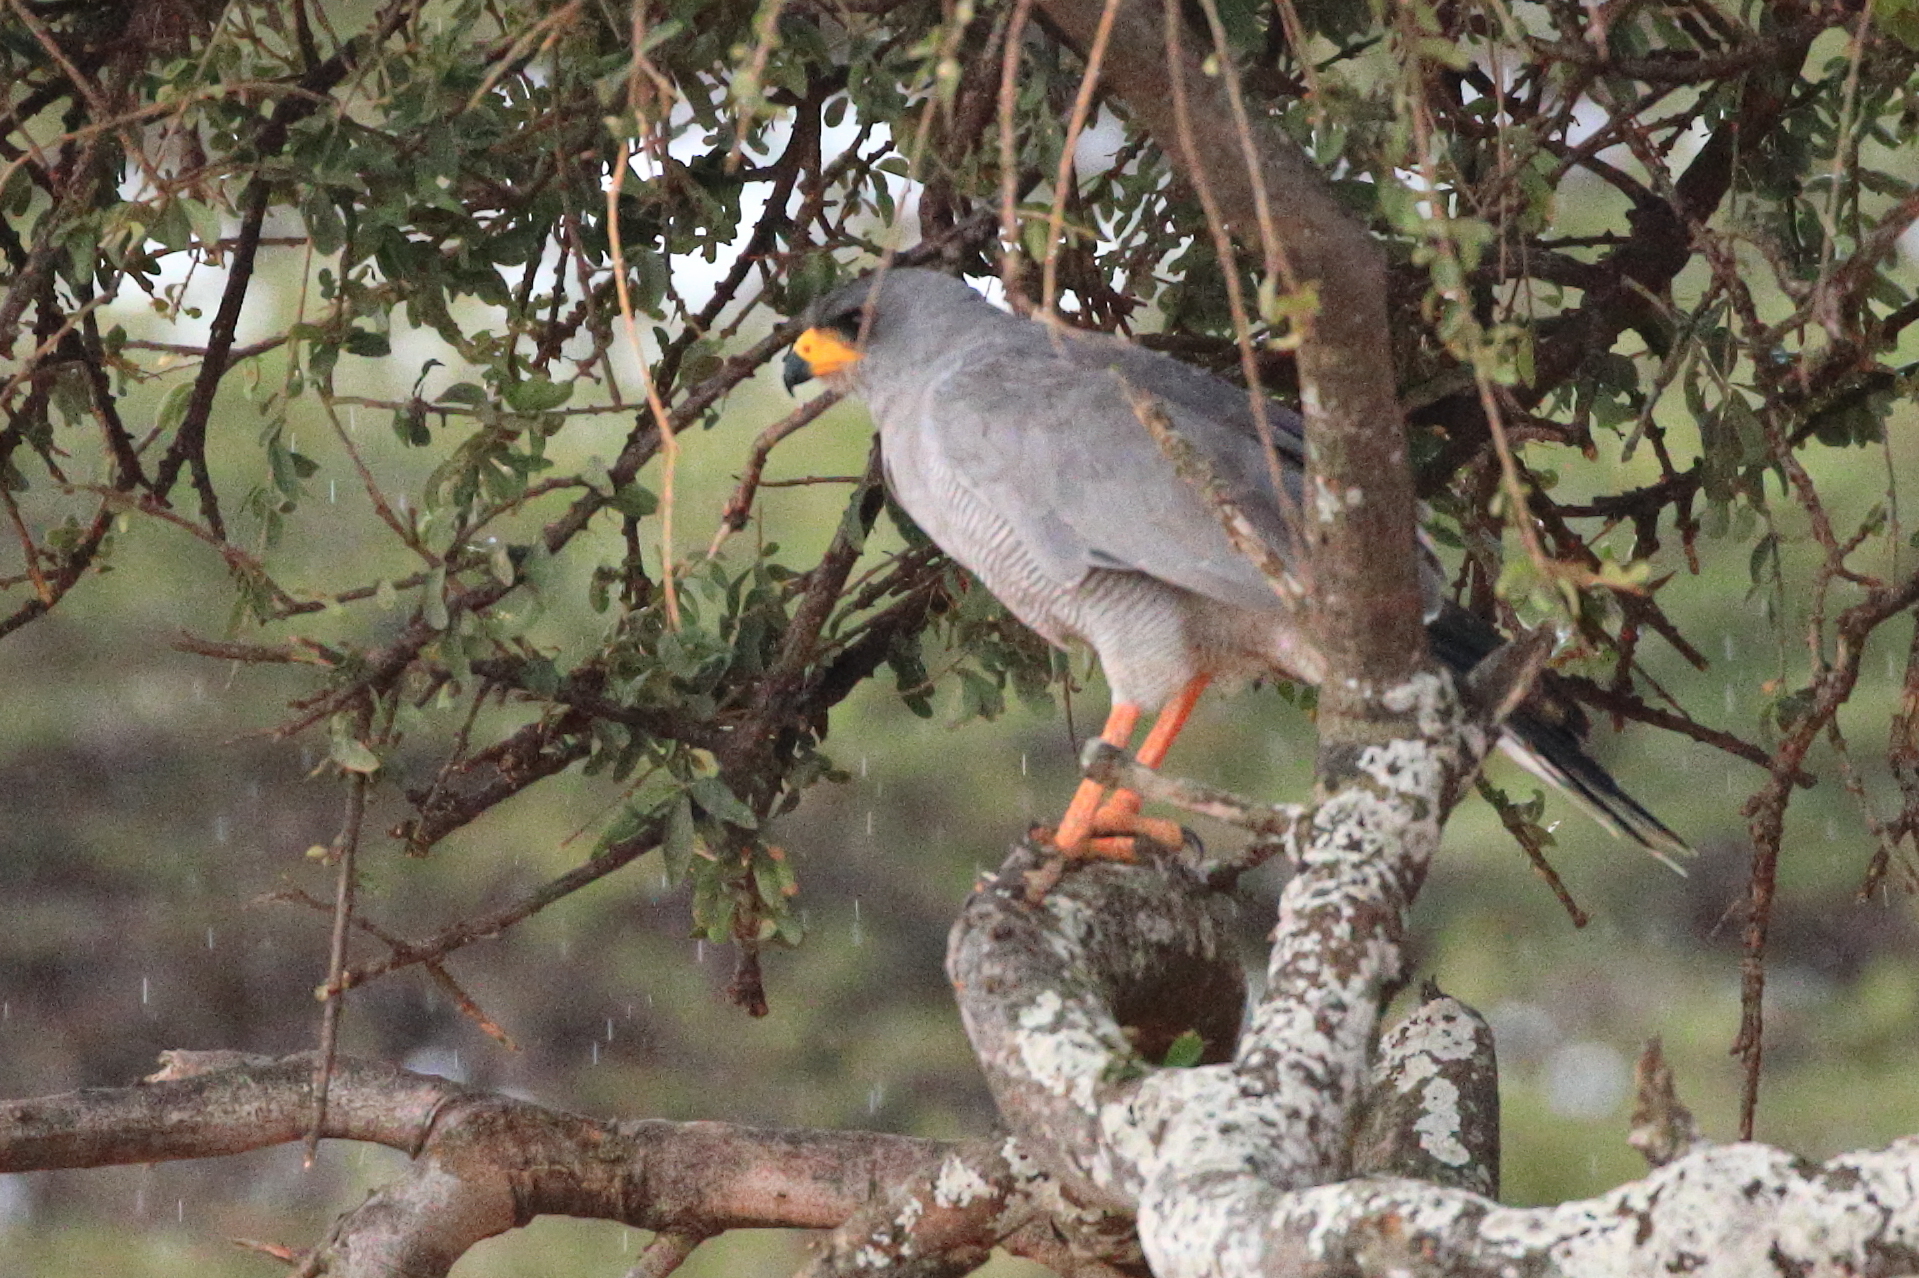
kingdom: Animalia
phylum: Chordata
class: Aves
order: Accipitriformes
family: Accipitridae
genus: Melierax
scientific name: Melierax poliopterus
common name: Eastern chanting goshawk
